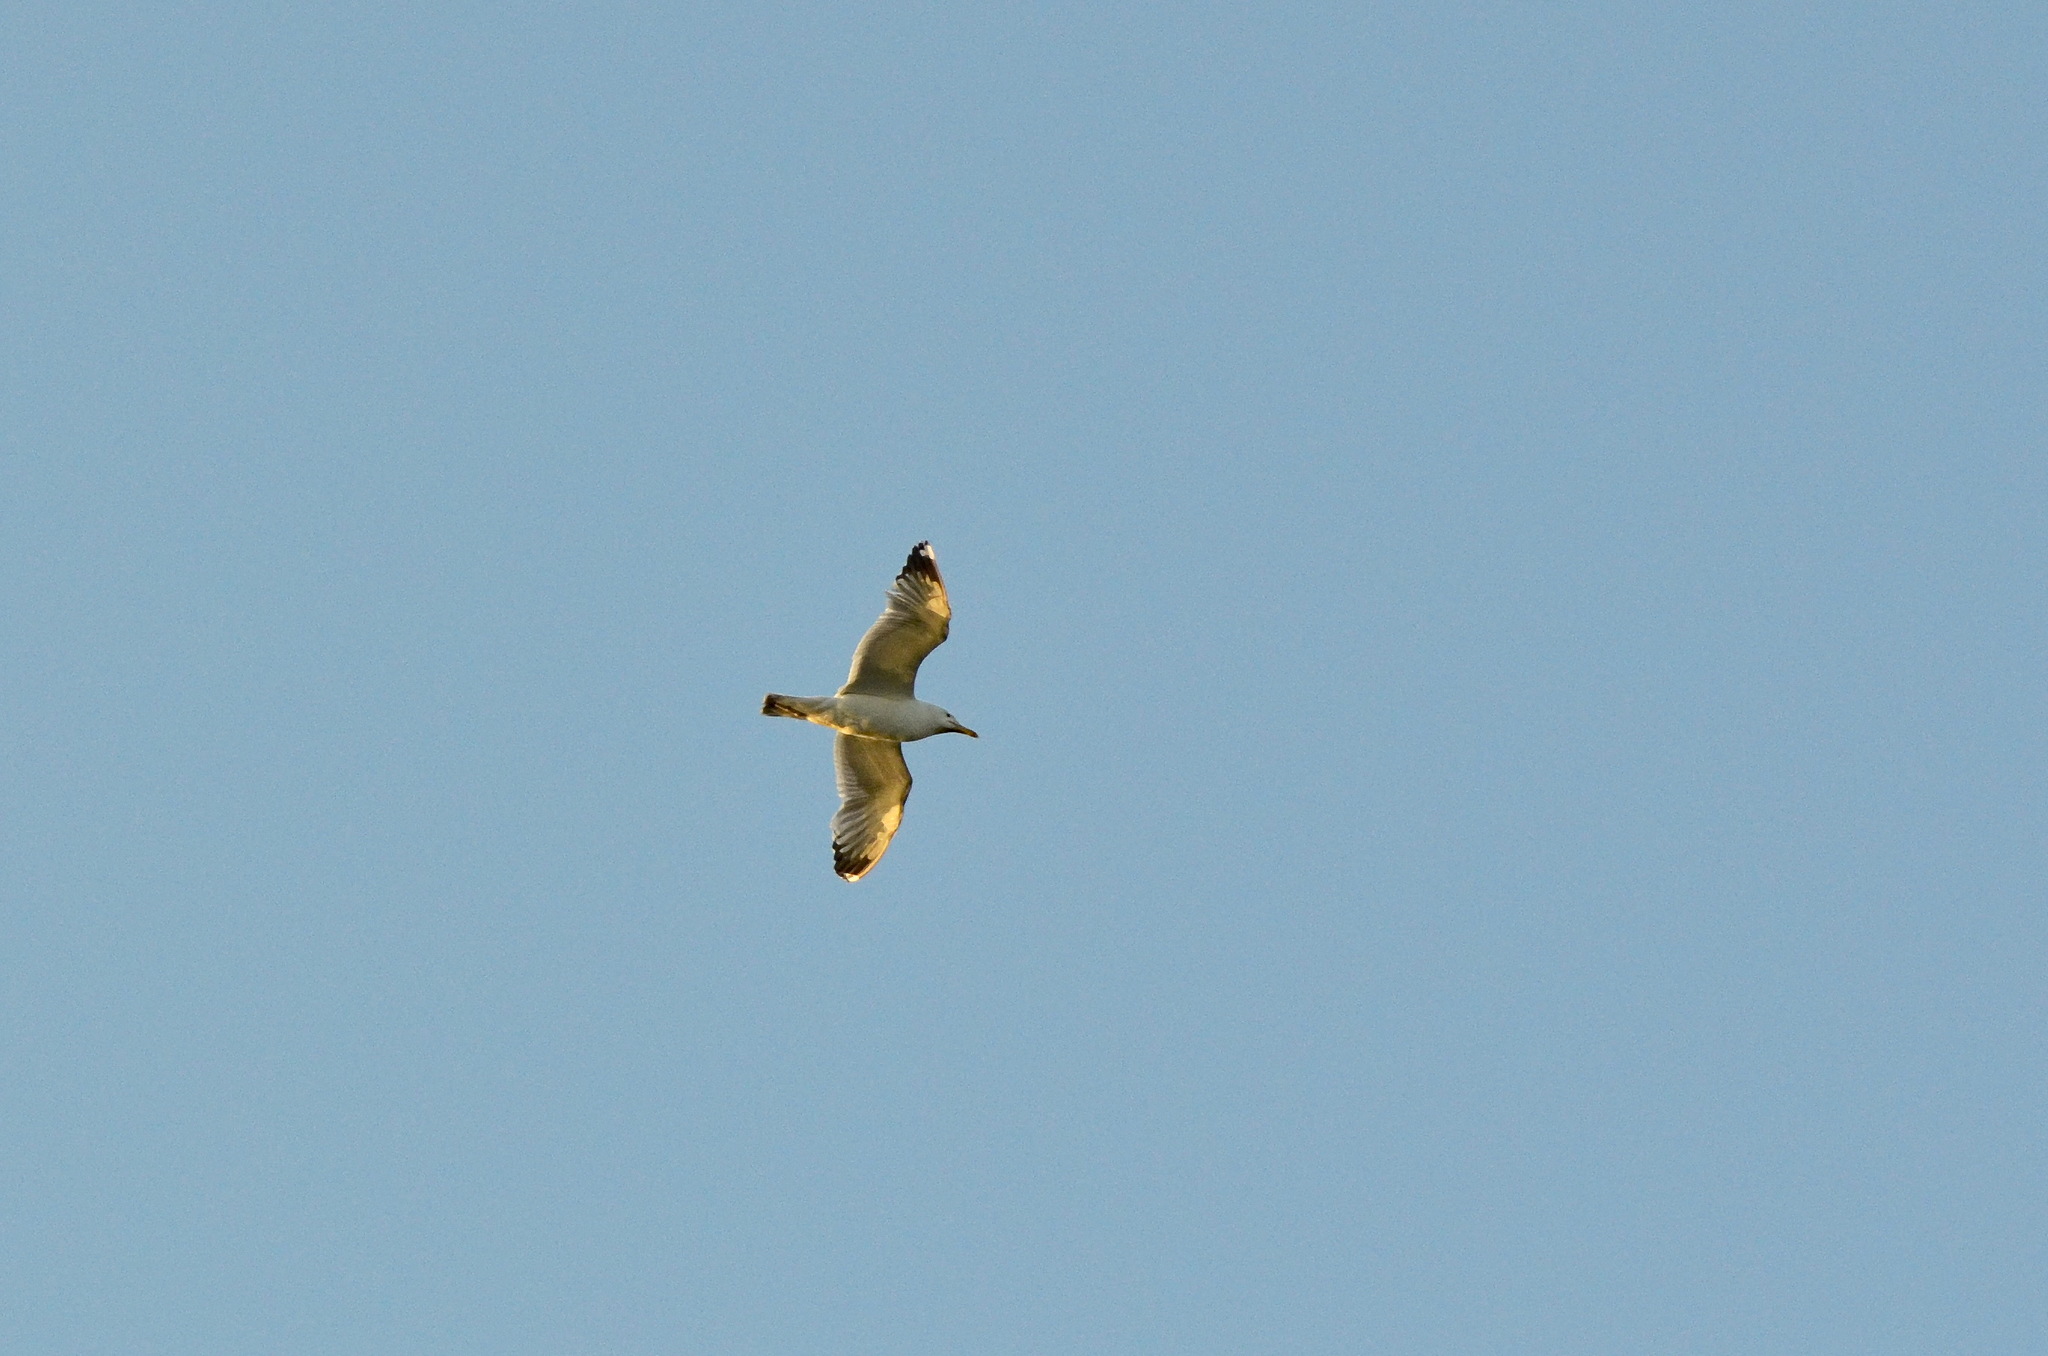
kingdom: Animalia
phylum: Chordata
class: Aves
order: Charadriiformes
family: Laridae
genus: Larus
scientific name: Larus cachinnans
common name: Caspian gull
